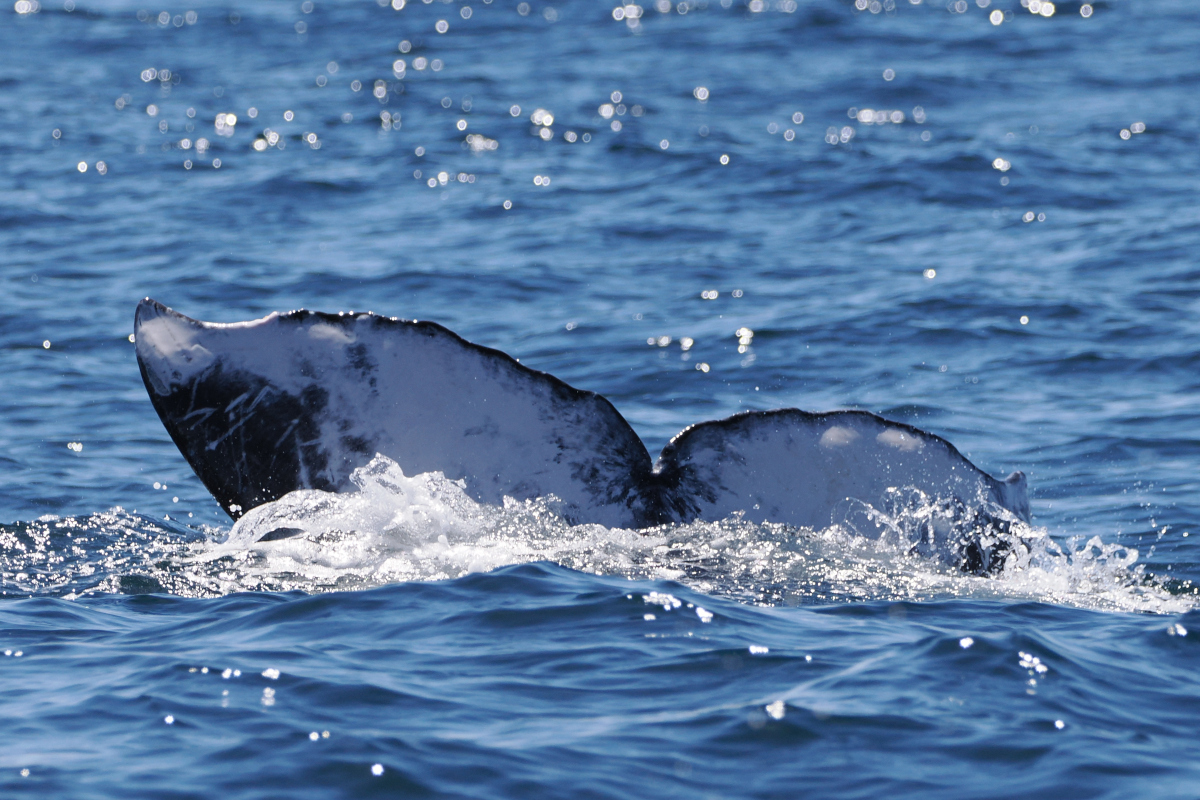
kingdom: Animalia
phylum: Chordata
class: Mammalia
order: Cetacea
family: Eschrichtiidae
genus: Eschrichtius
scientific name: Eschrichtius robustus
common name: Gray whale
